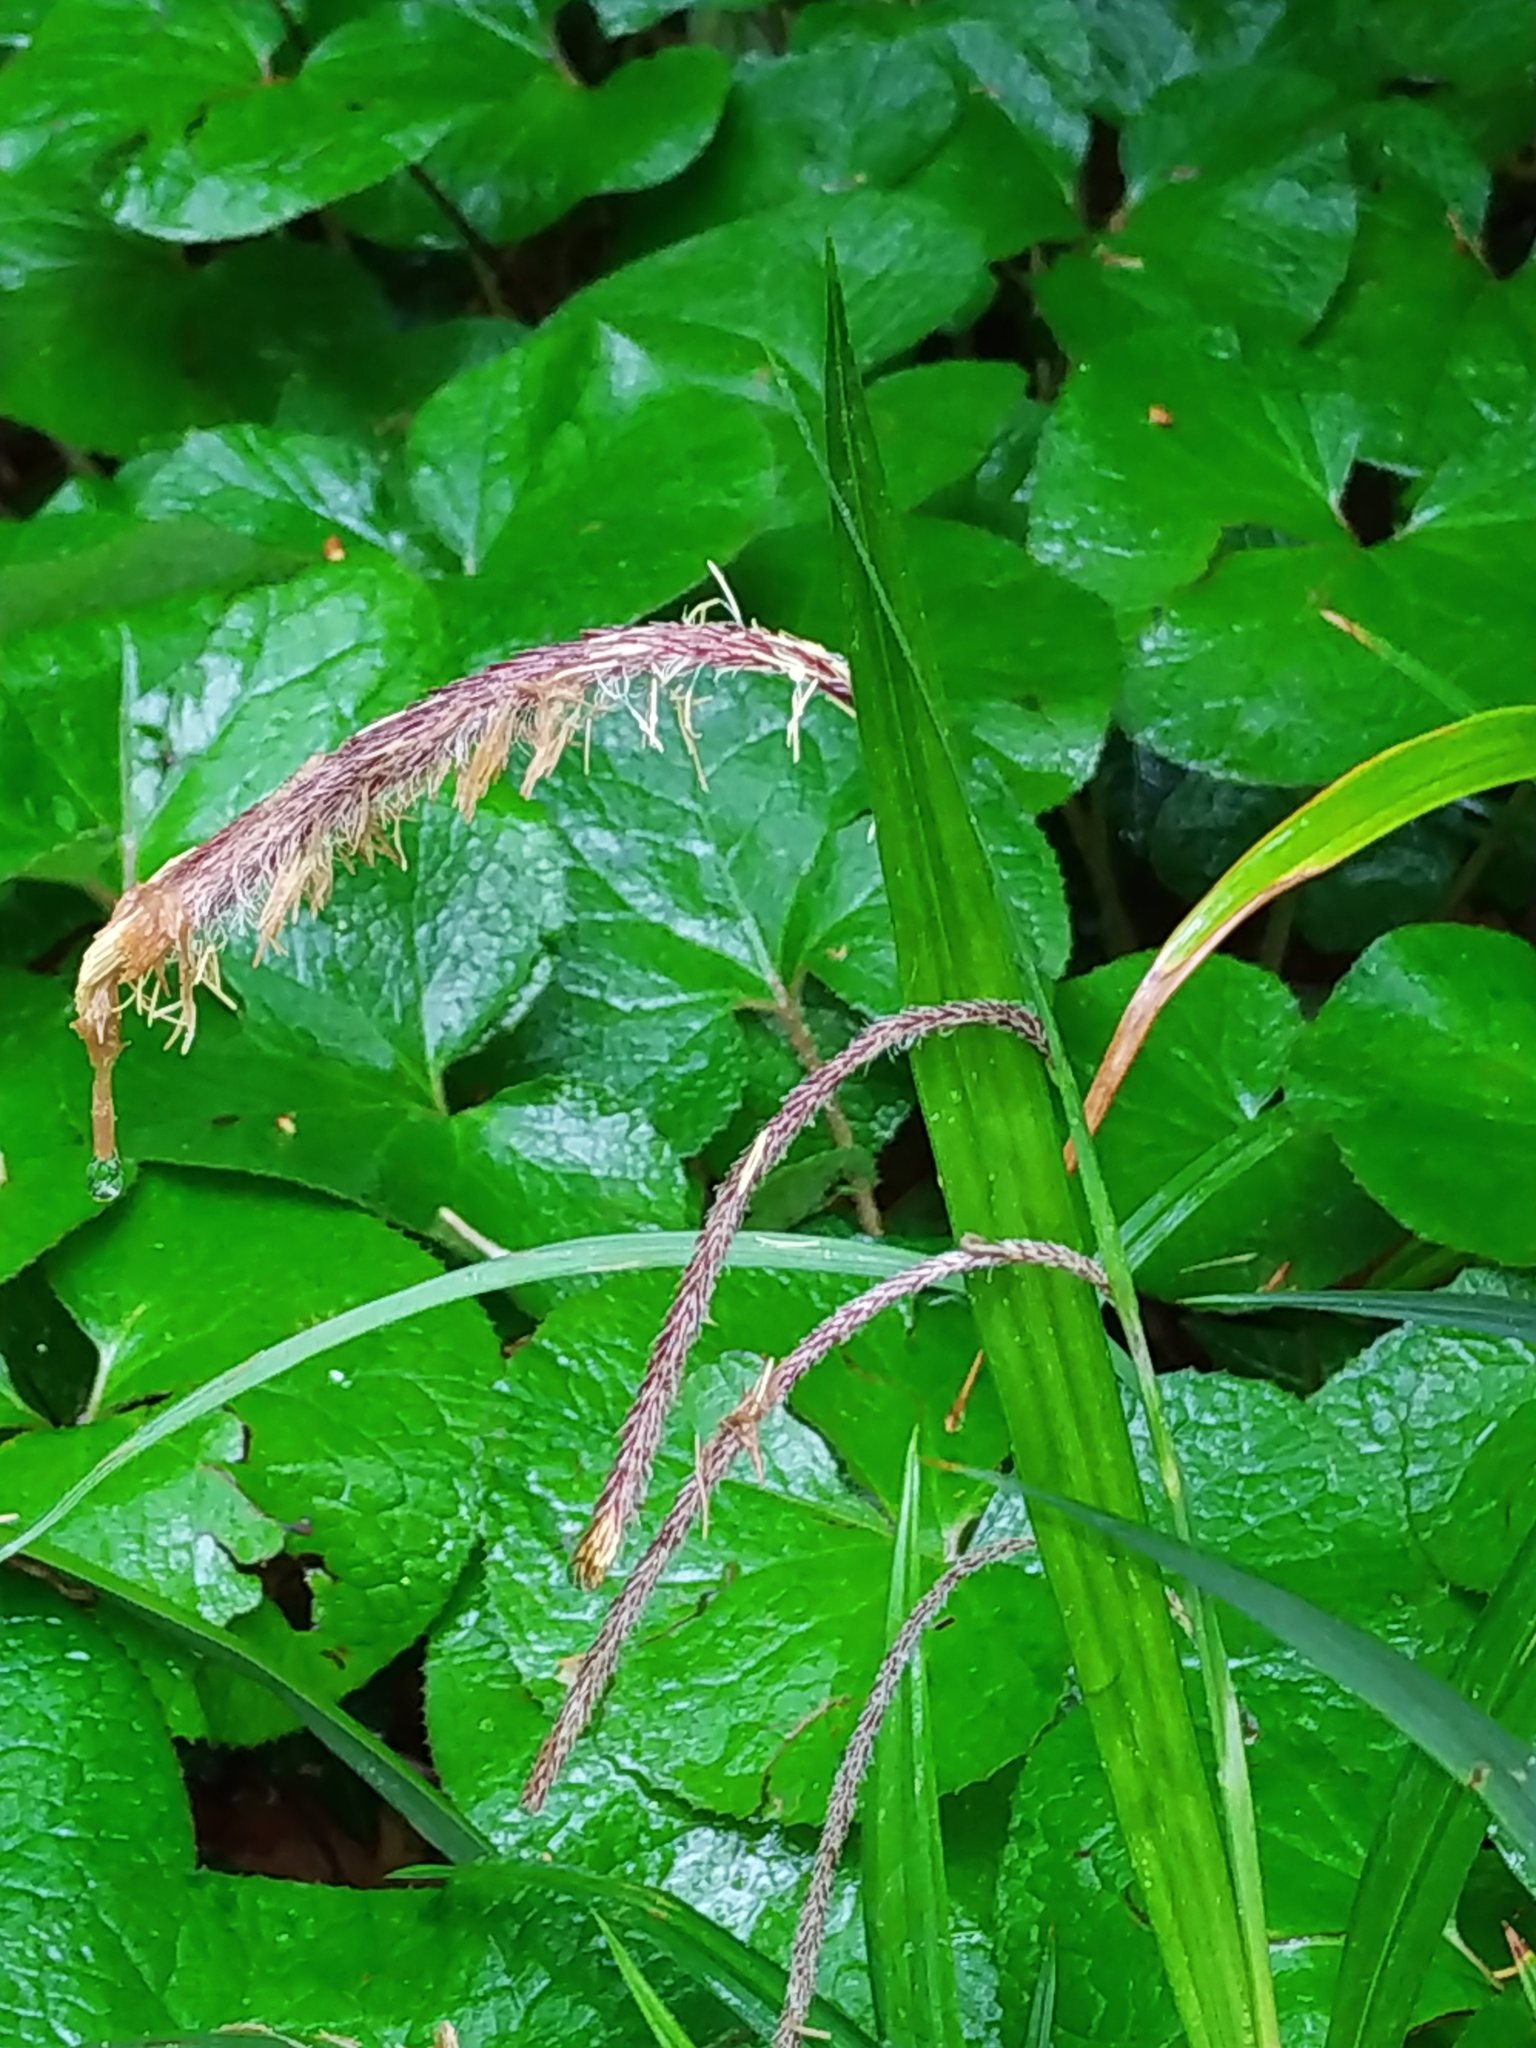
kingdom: Plantae
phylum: Tracheophyta
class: Liliopsida
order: Poales
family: Cyperaceae
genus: Carex
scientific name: Carex pendula
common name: Pendulous sedge
